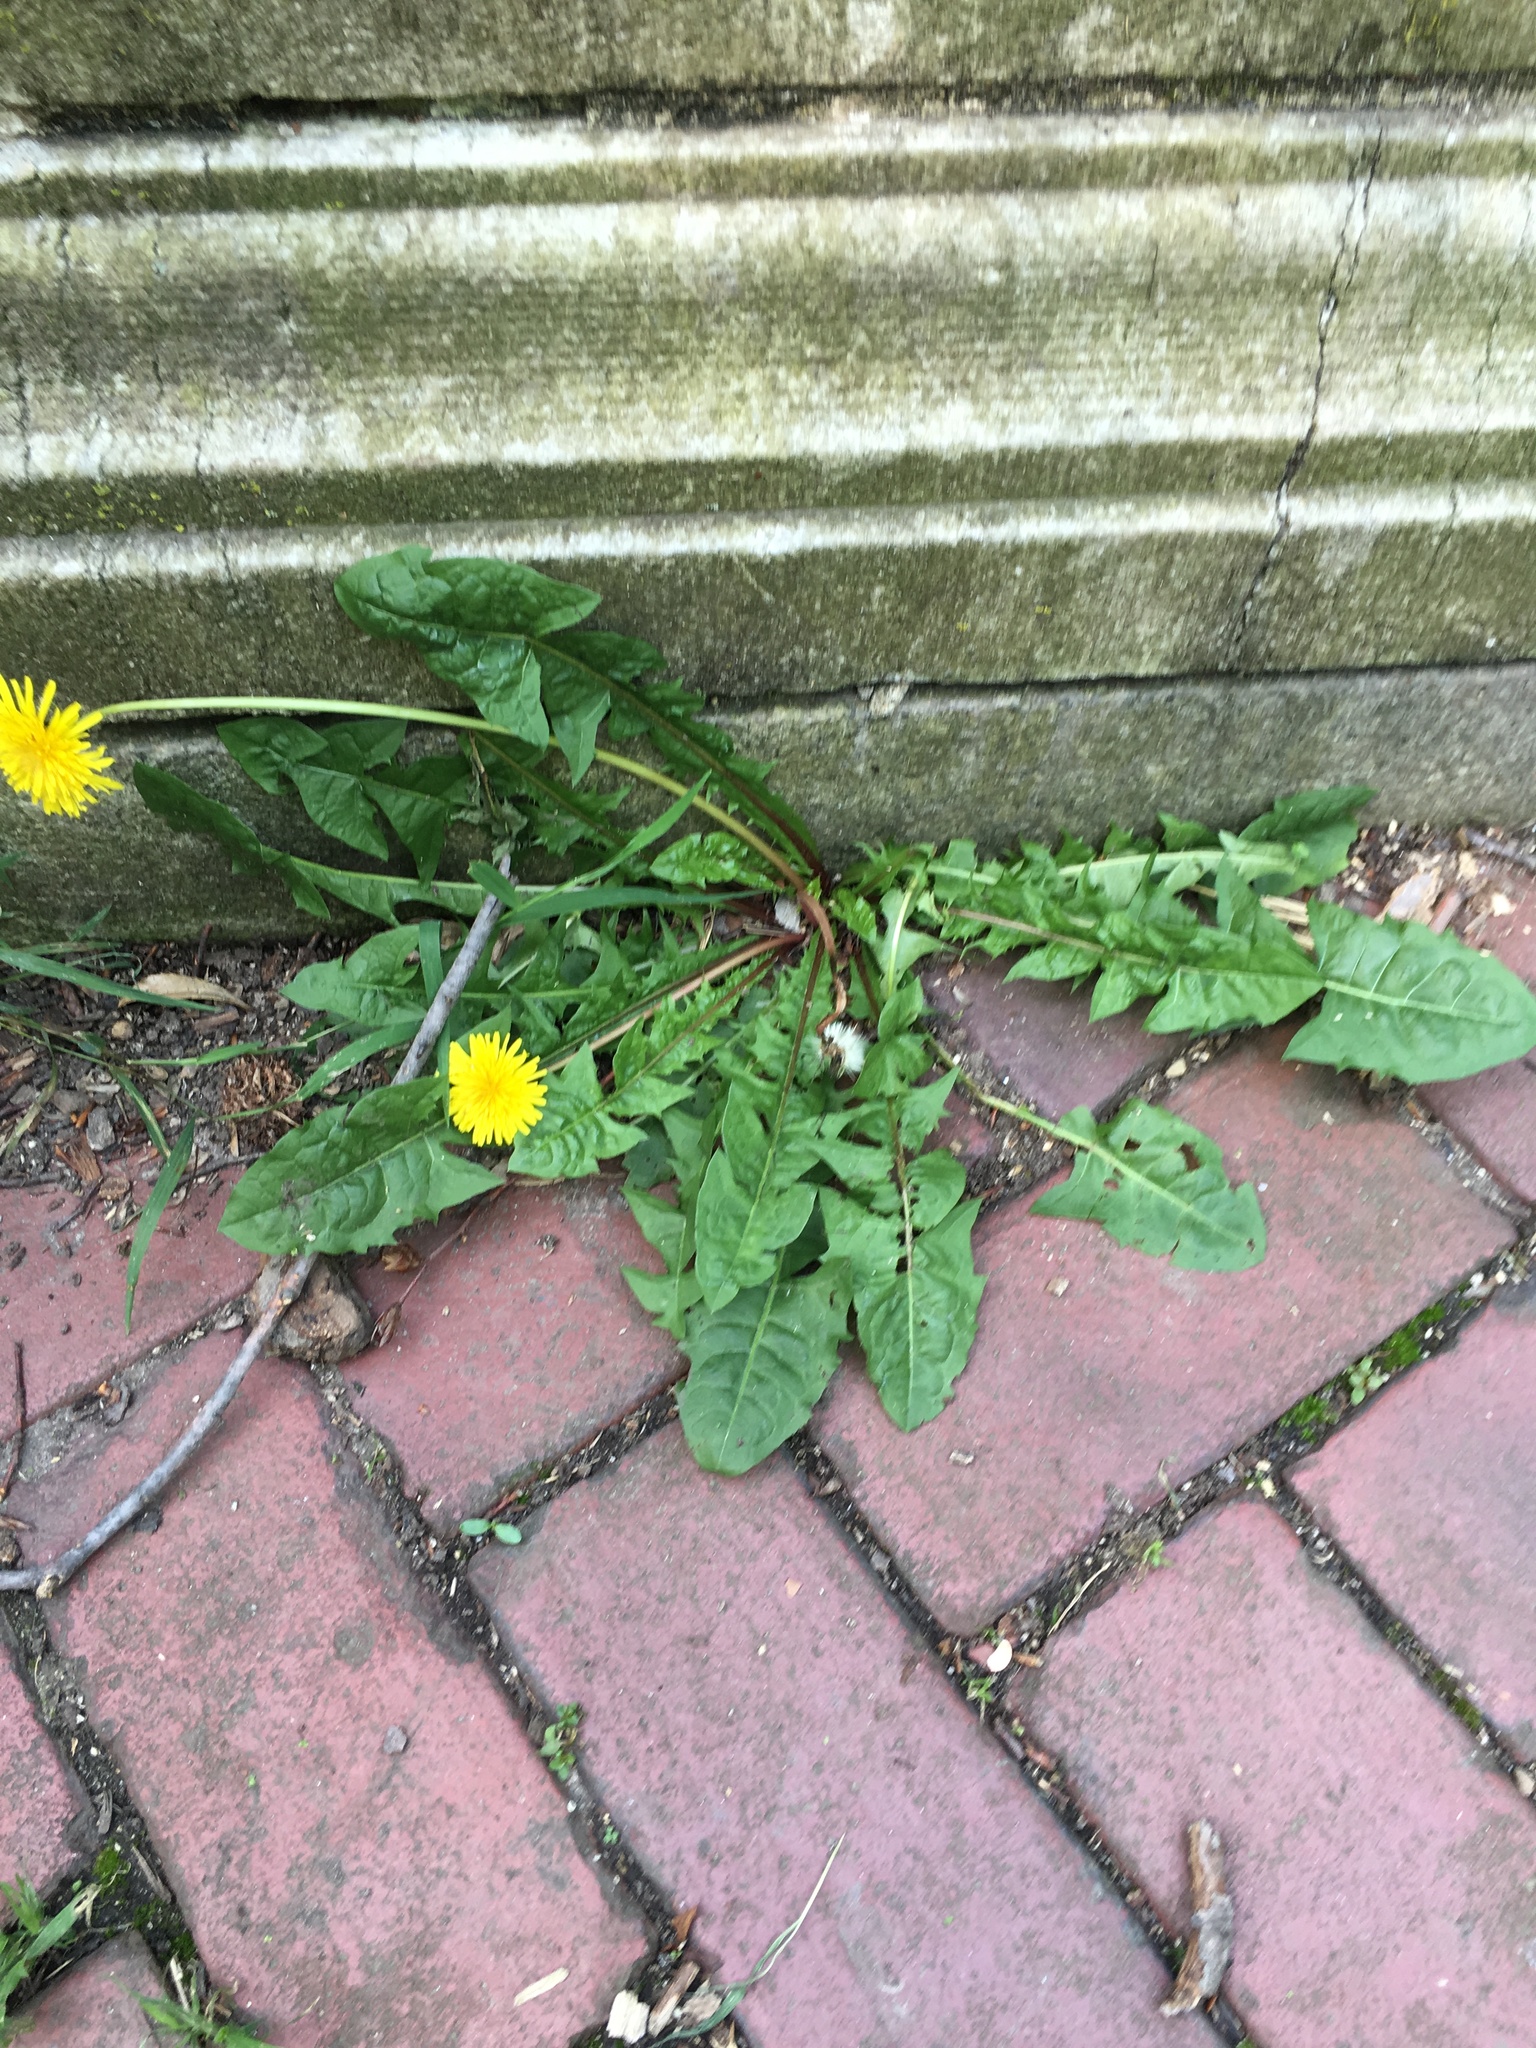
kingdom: Plantae
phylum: Tracheophyta
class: Magnoliopsida
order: Asterales
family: Asteraceae
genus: Taraxacum
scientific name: Taraxacum officinale
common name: Common dandelion
